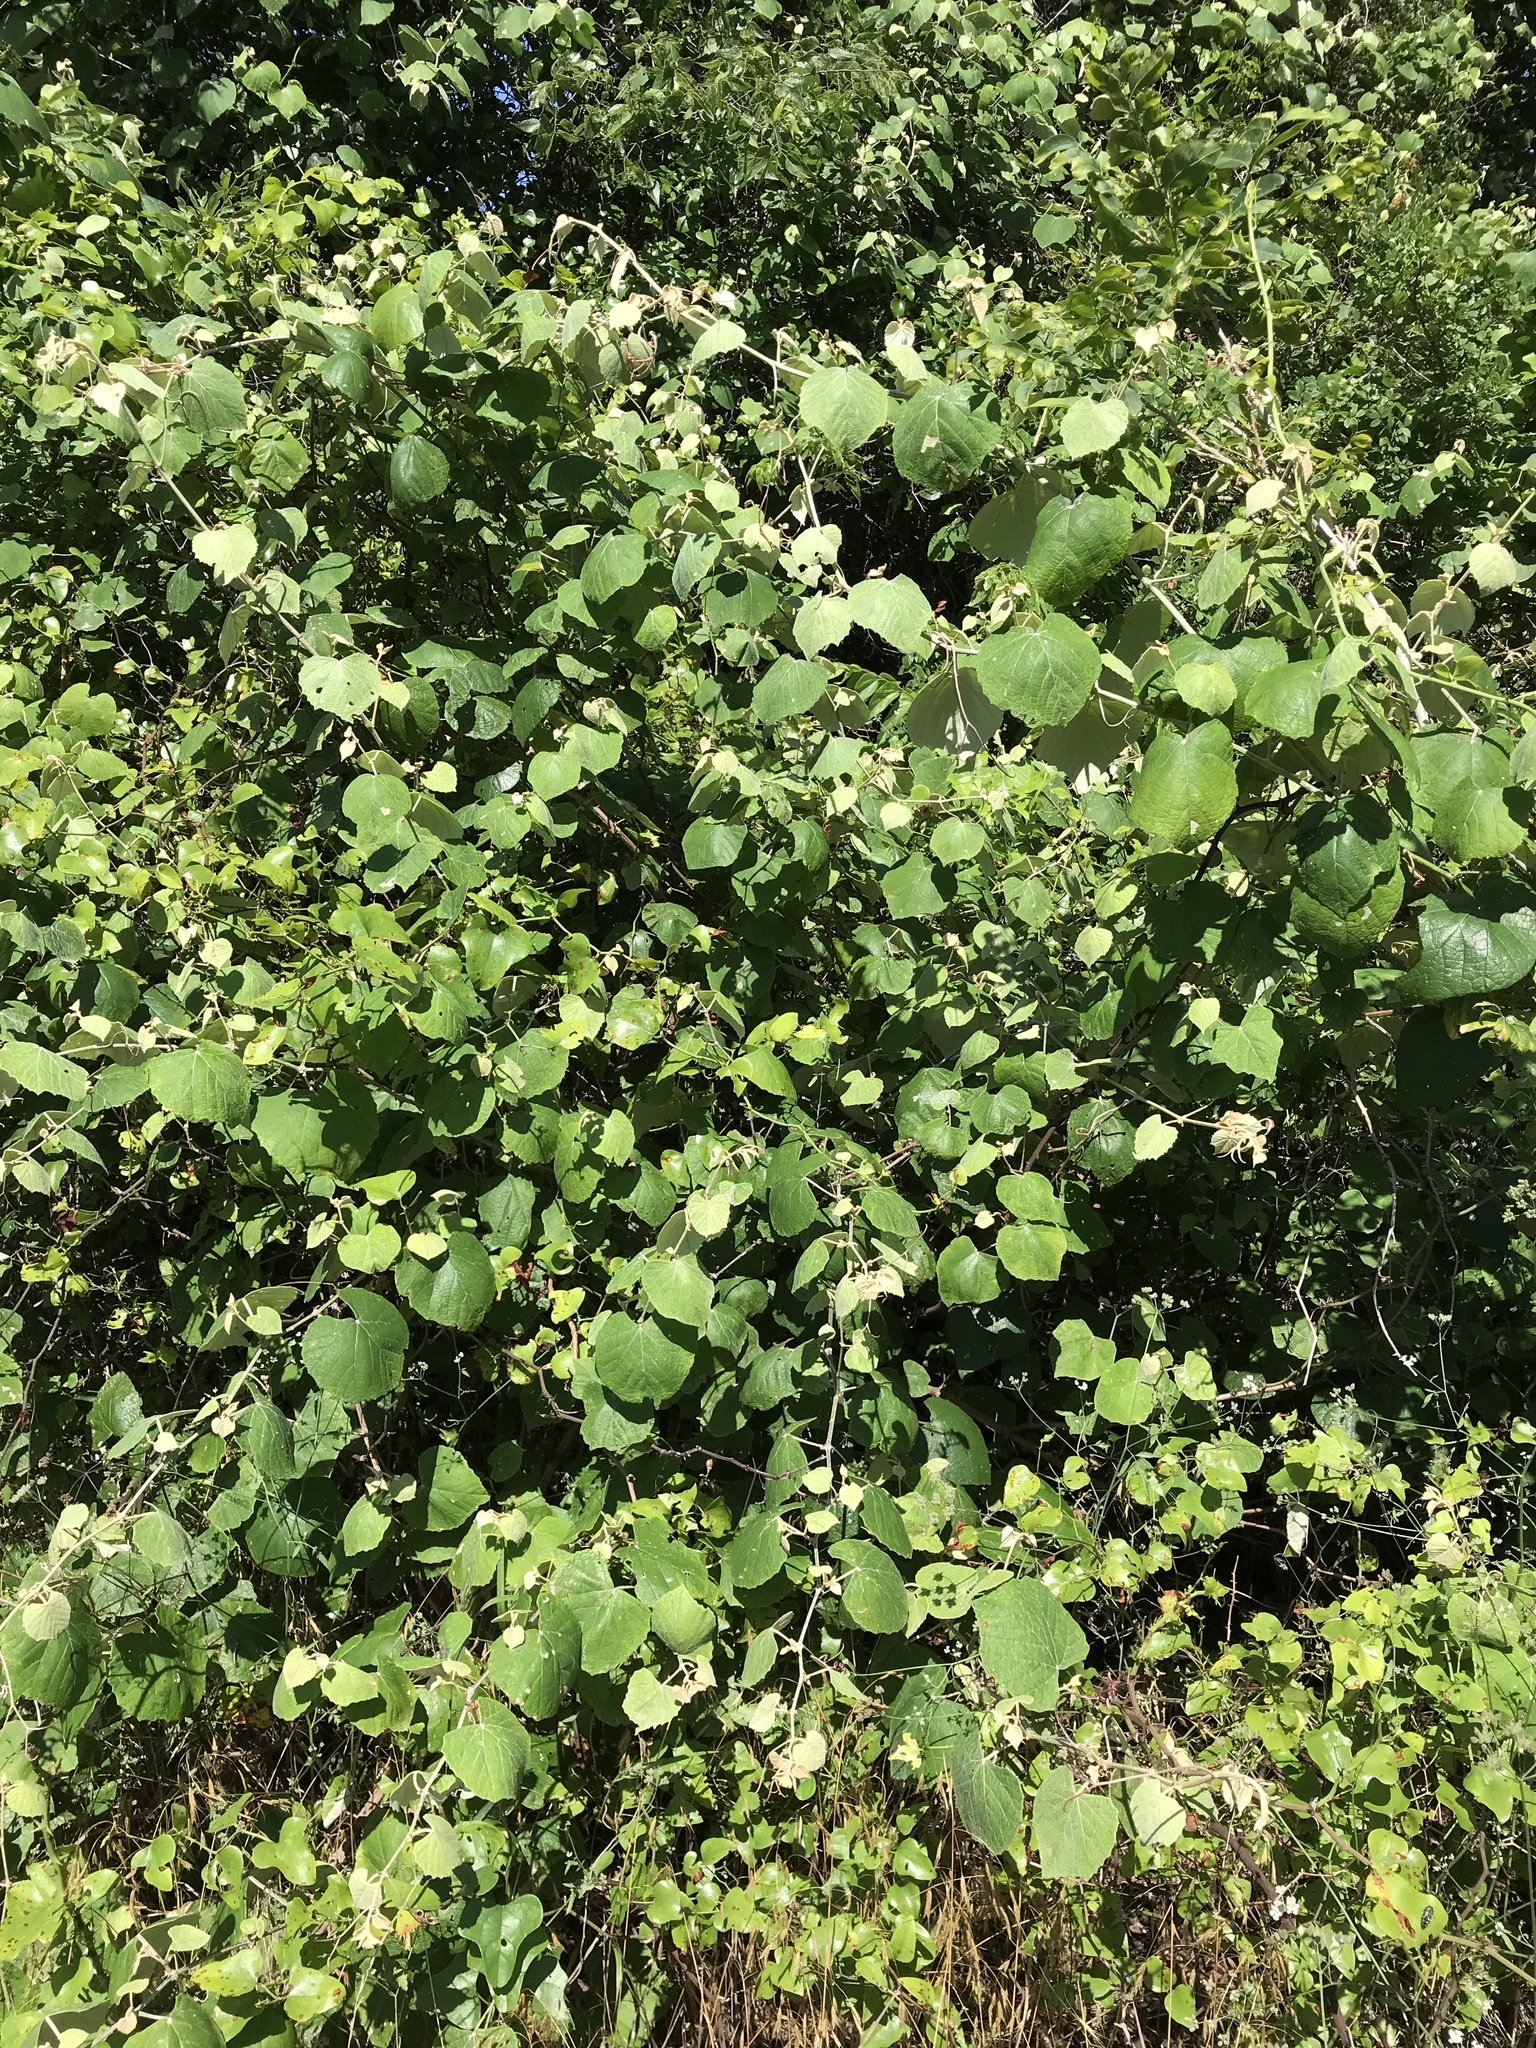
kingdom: Plantae
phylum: Tracheophyta
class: Magnoliopsida
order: Vitales
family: Vitaceae
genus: Vitis
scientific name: Vitis mustangensis
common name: Mustang grape
